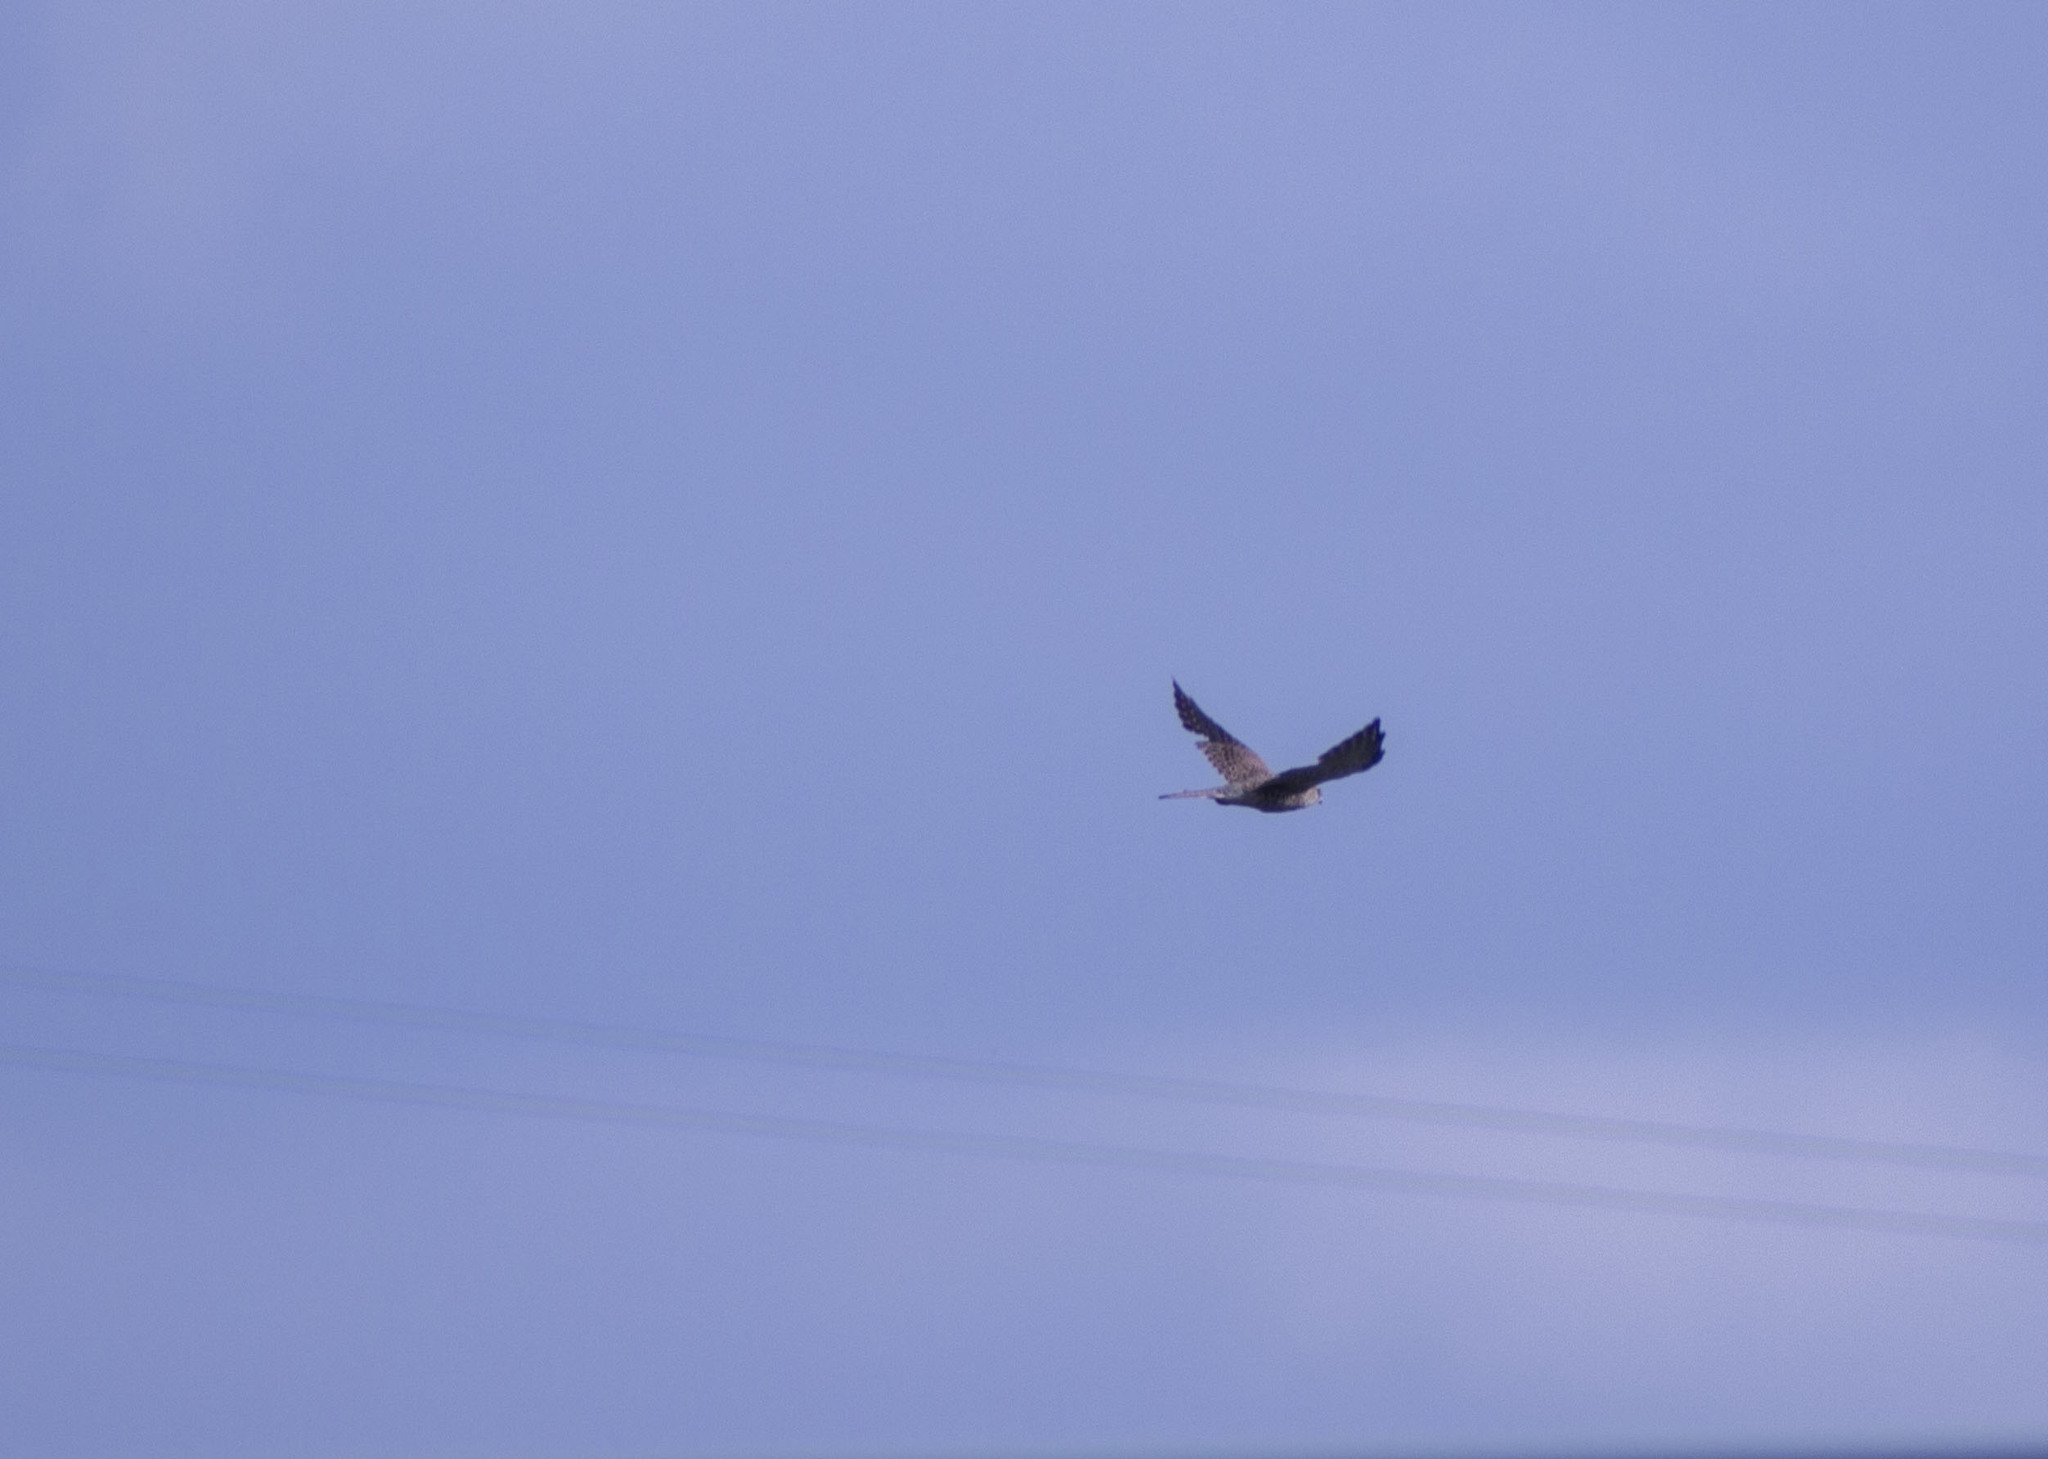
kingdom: Animalia
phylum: Chordata
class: Aves
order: Falconiformes
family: Falconidae
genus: Falco
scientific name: Falco tinnunculus
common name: Common kestrel
